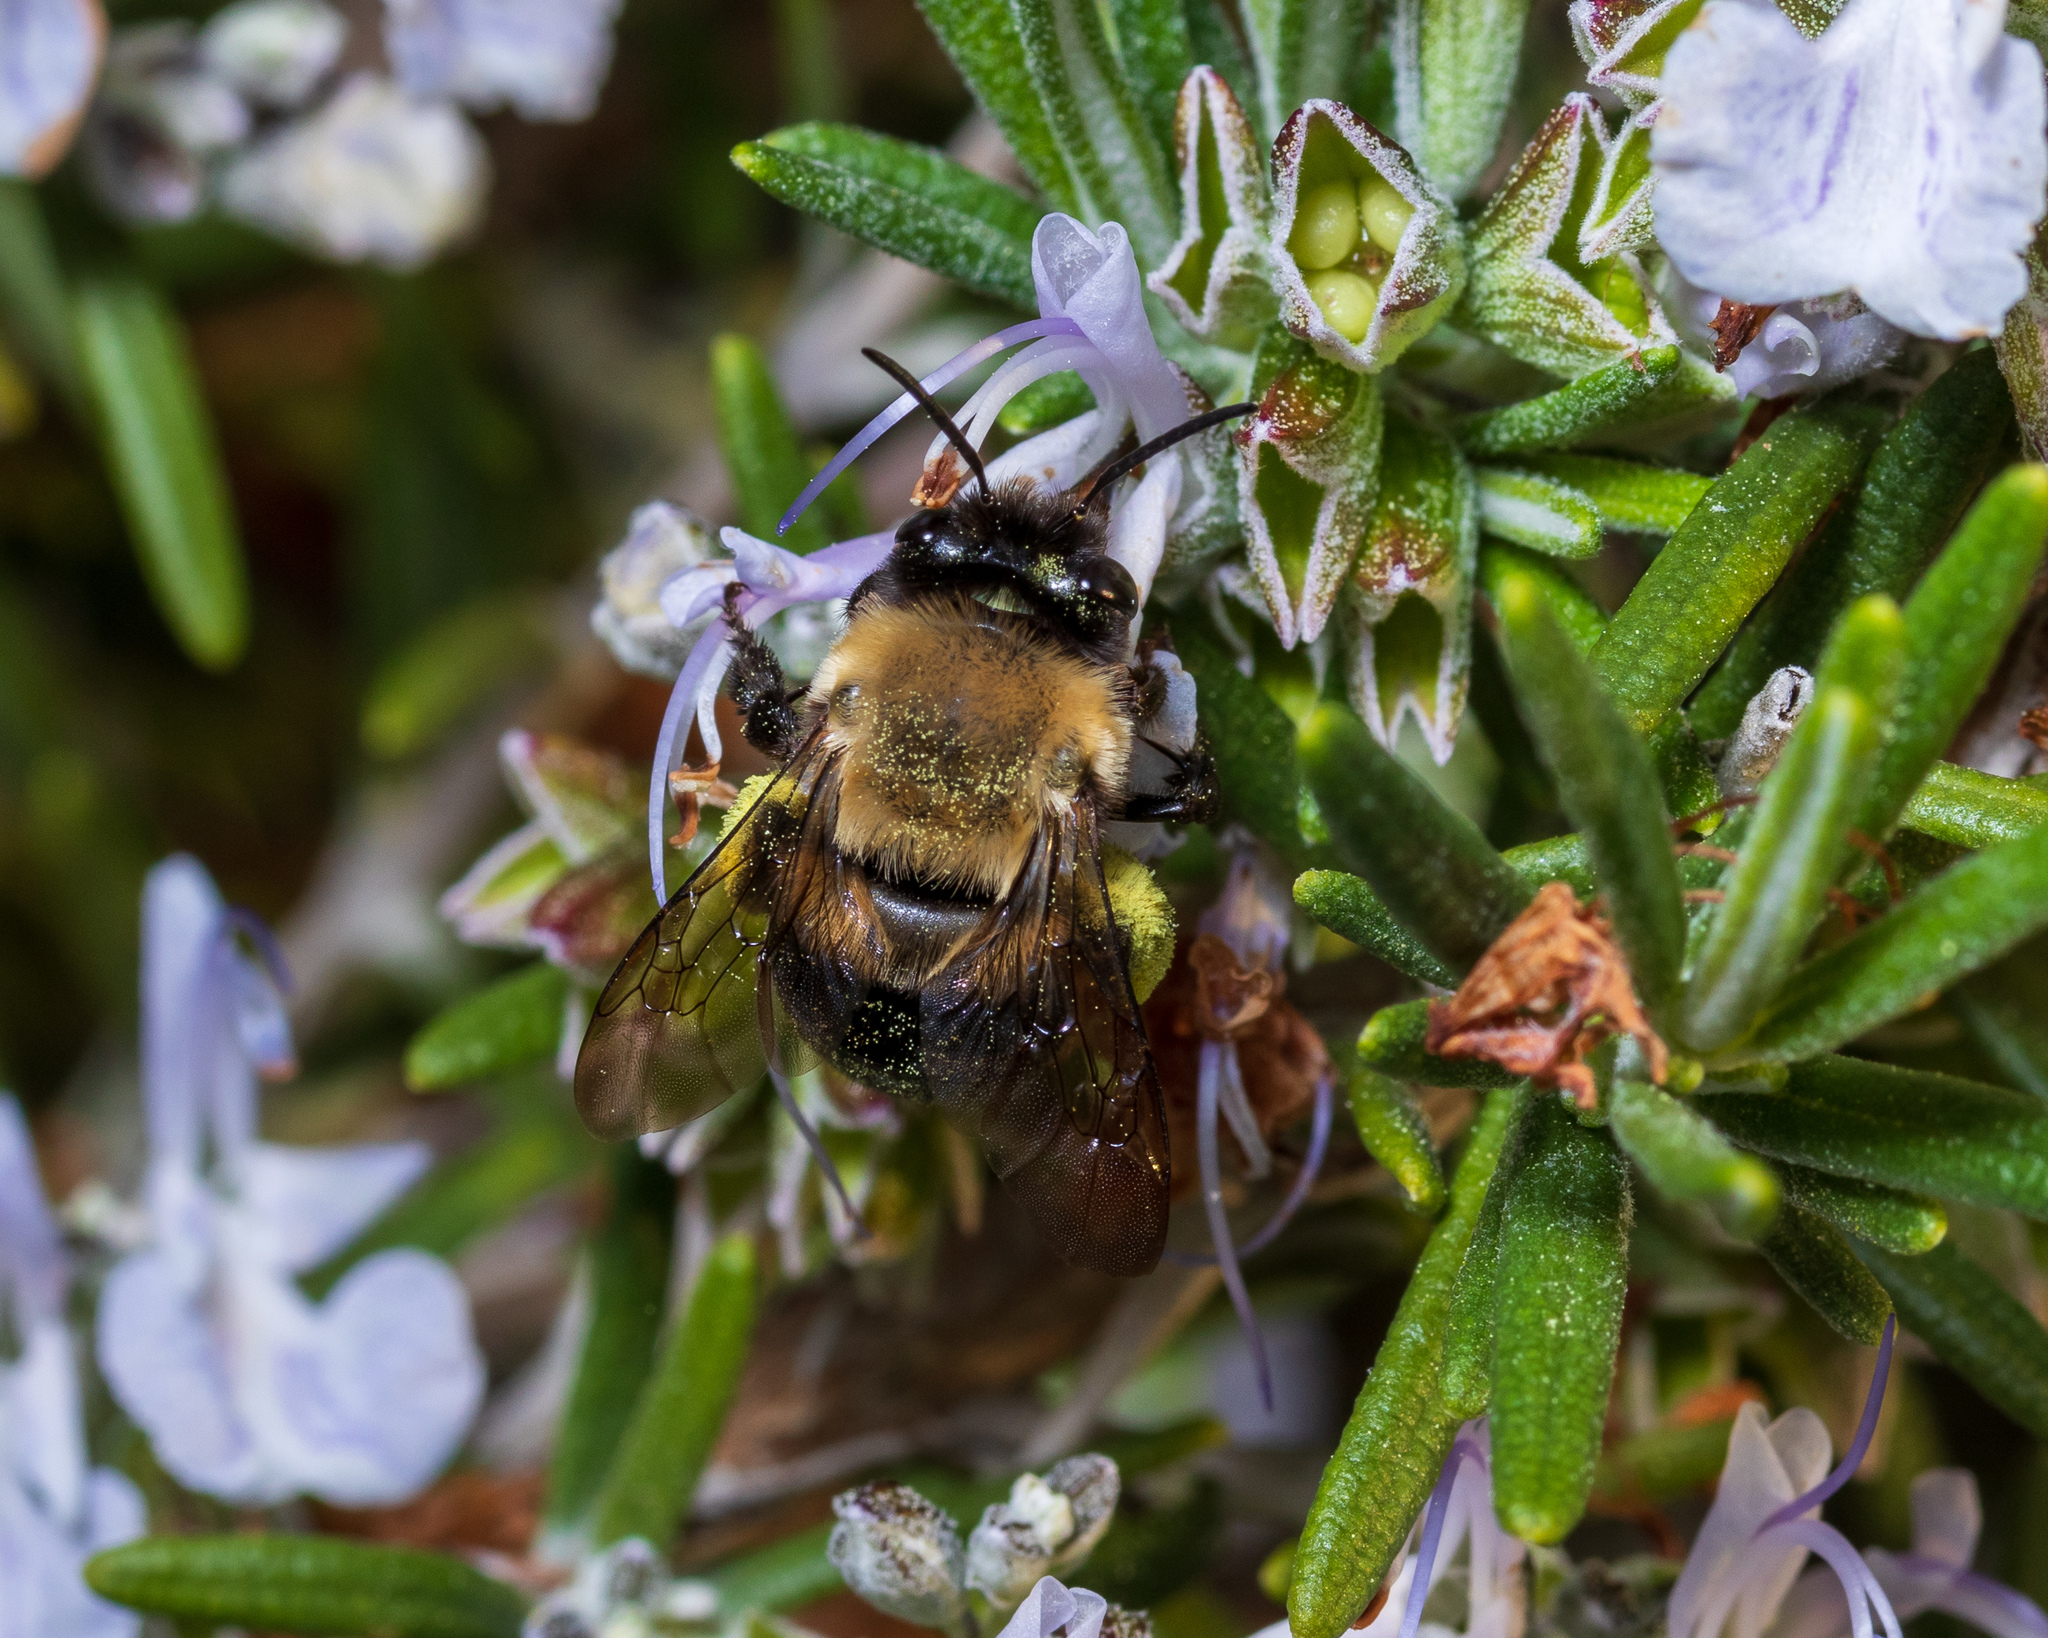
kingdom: Animalia
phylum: Arthropoda
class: Insecta
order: Hymenoptera
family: Apidae
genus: Habropoda
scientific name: Habropoda laboriosa
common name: Southeastern blueberry bee
